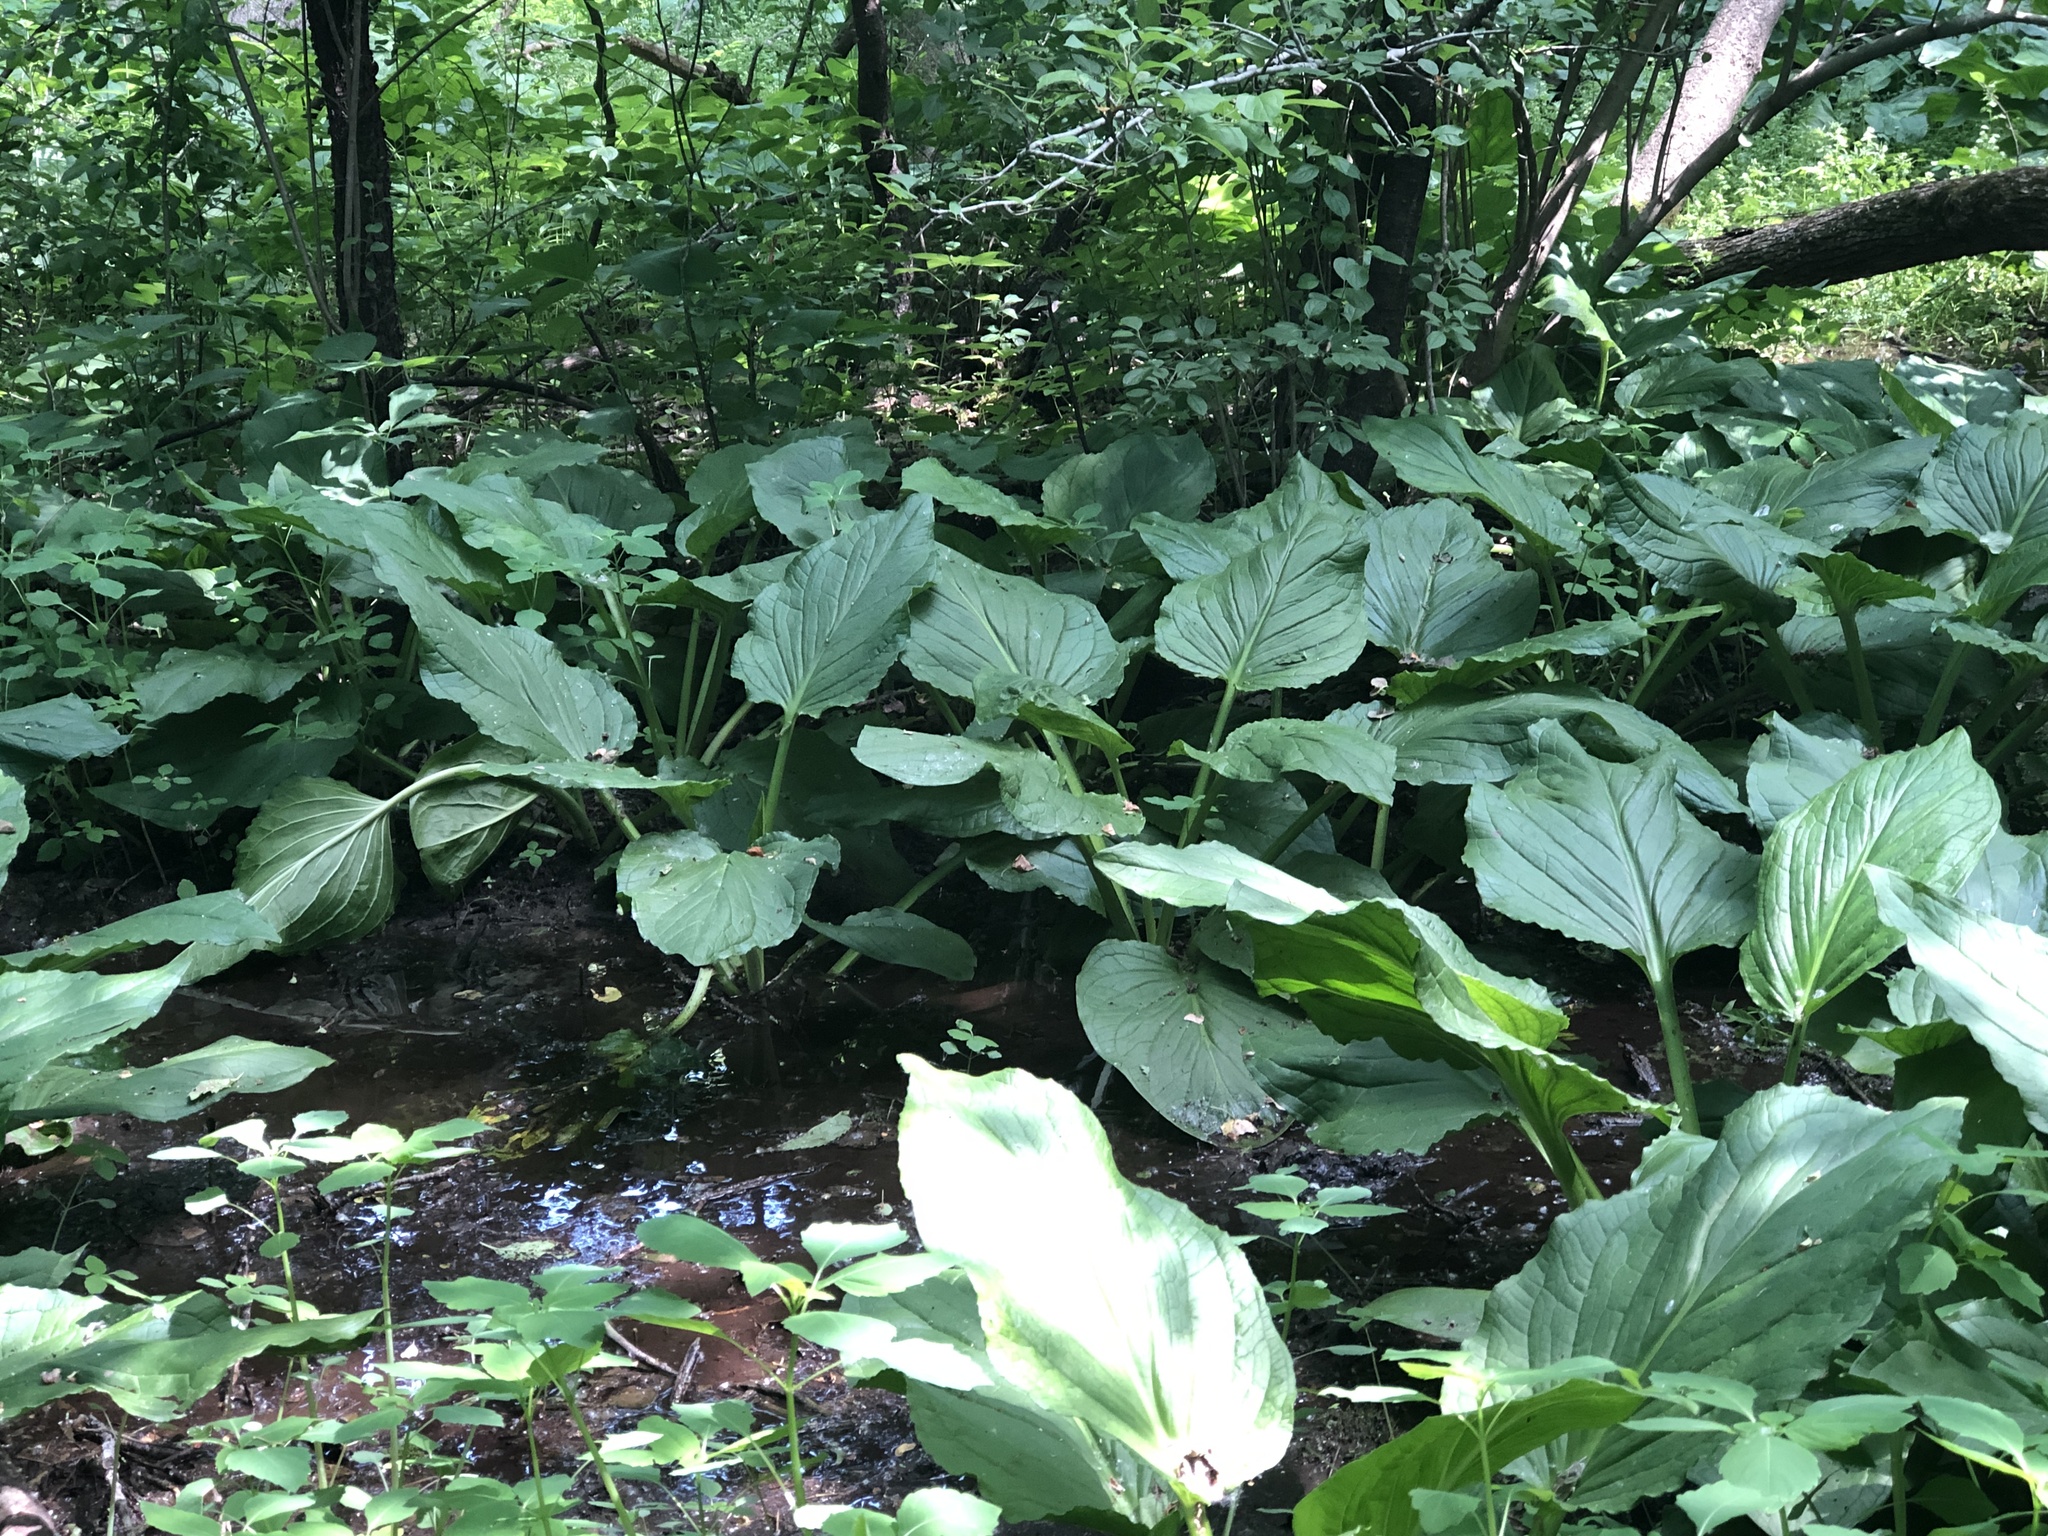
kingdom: Plantae
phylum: Tracheophyta
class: Liliopsida
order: Alismatales
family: Araceae
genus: Symplocarpus
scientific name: Symplocarpus foetidus
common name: Eastern skunk cabbage
